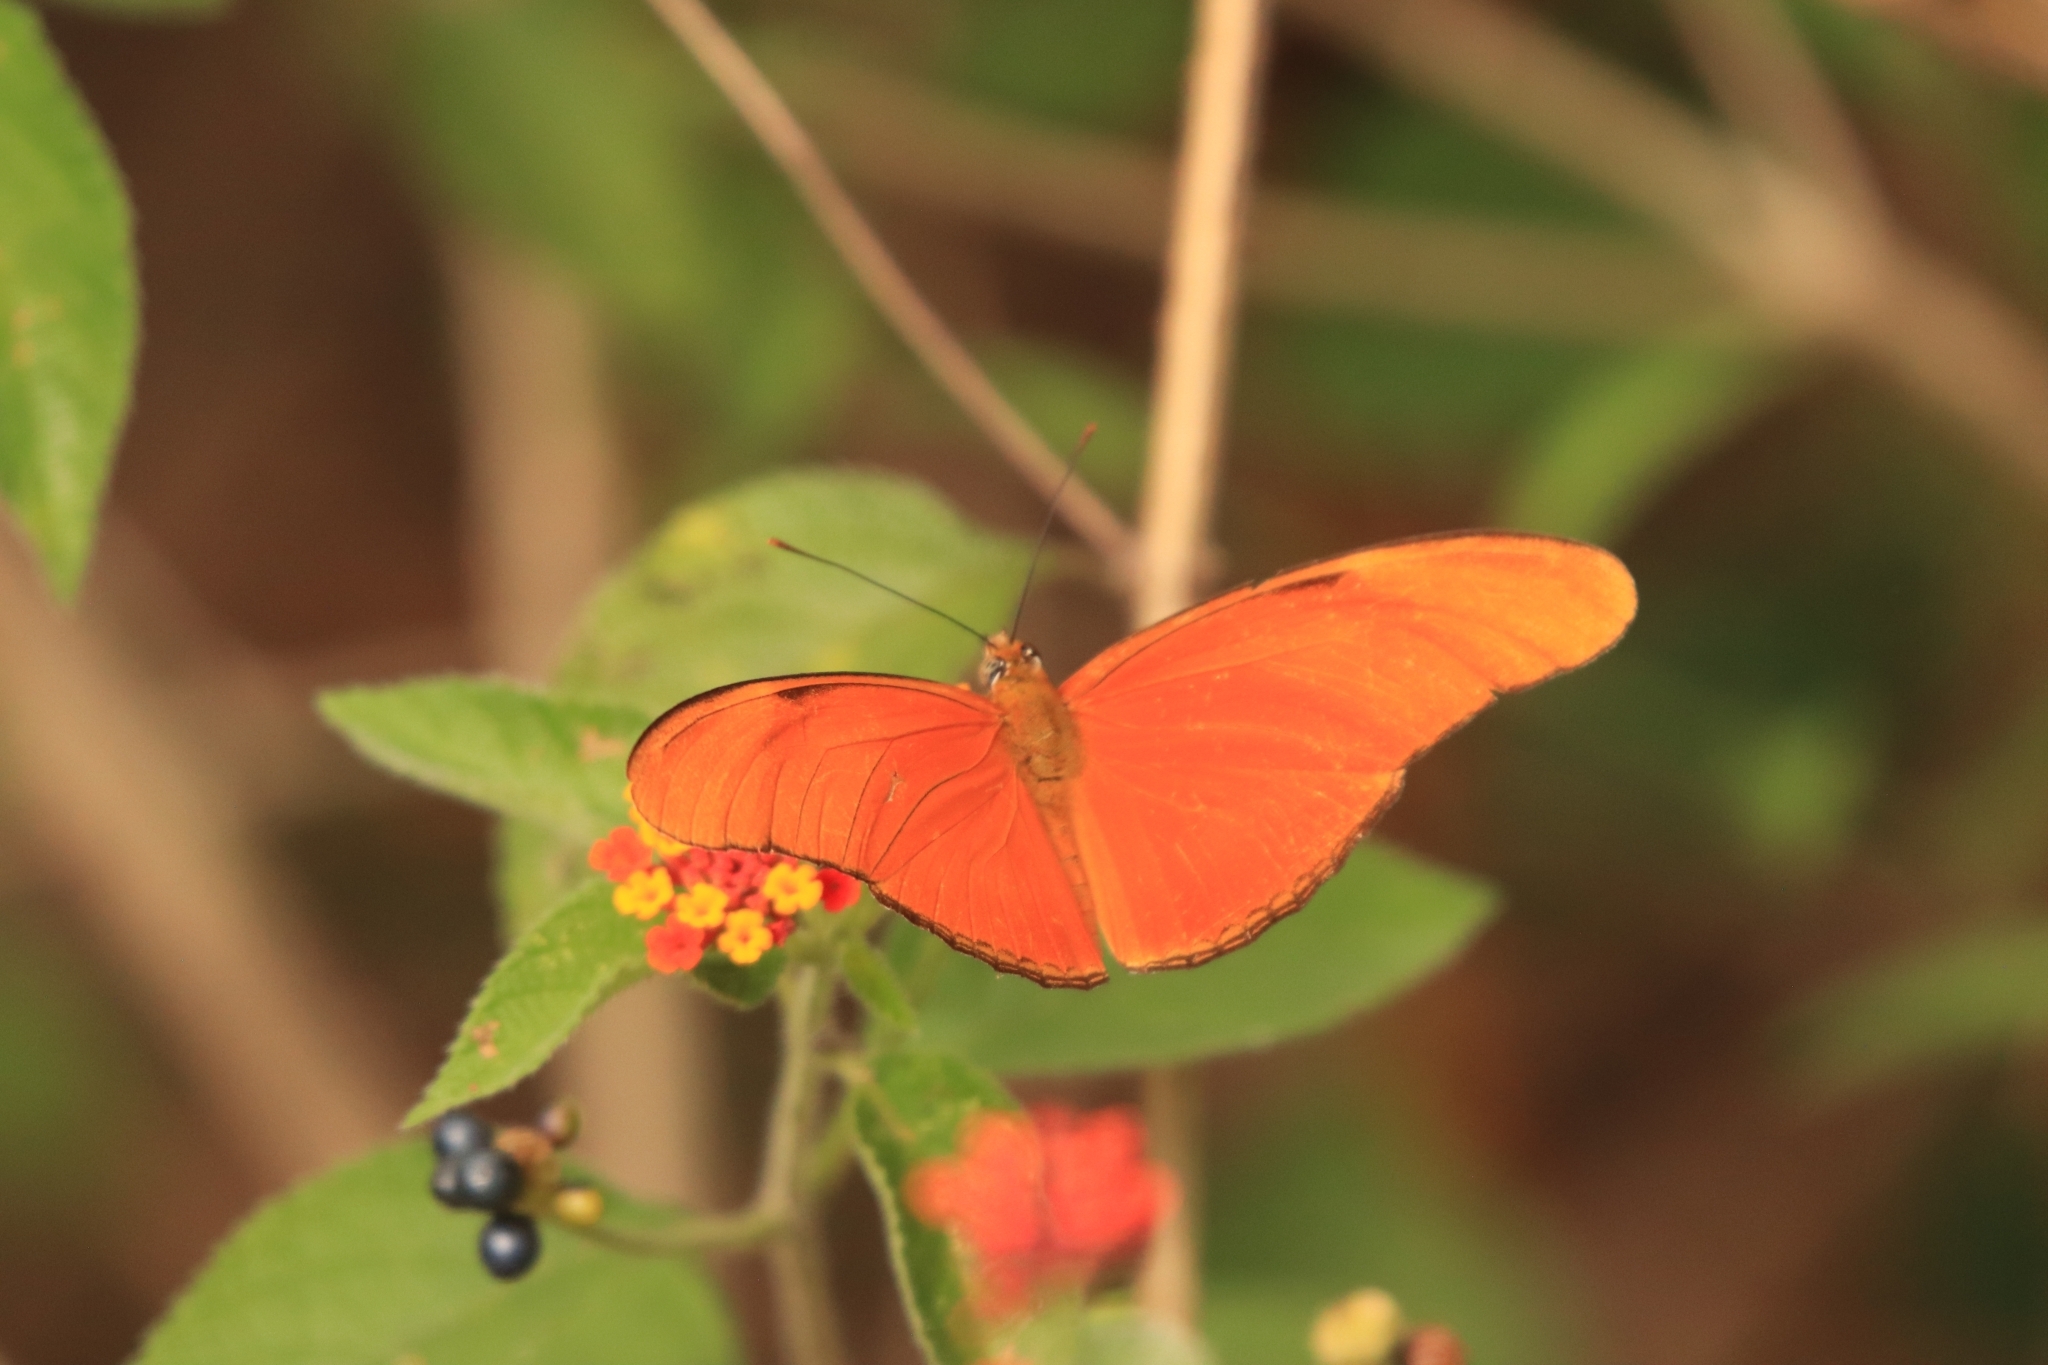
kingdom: Animalia
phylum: Arthropoda
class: Insecta
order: Lepidoptera
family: Nymphalidae
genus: Dryas
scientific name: Dryas iulia
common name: Flambeau
